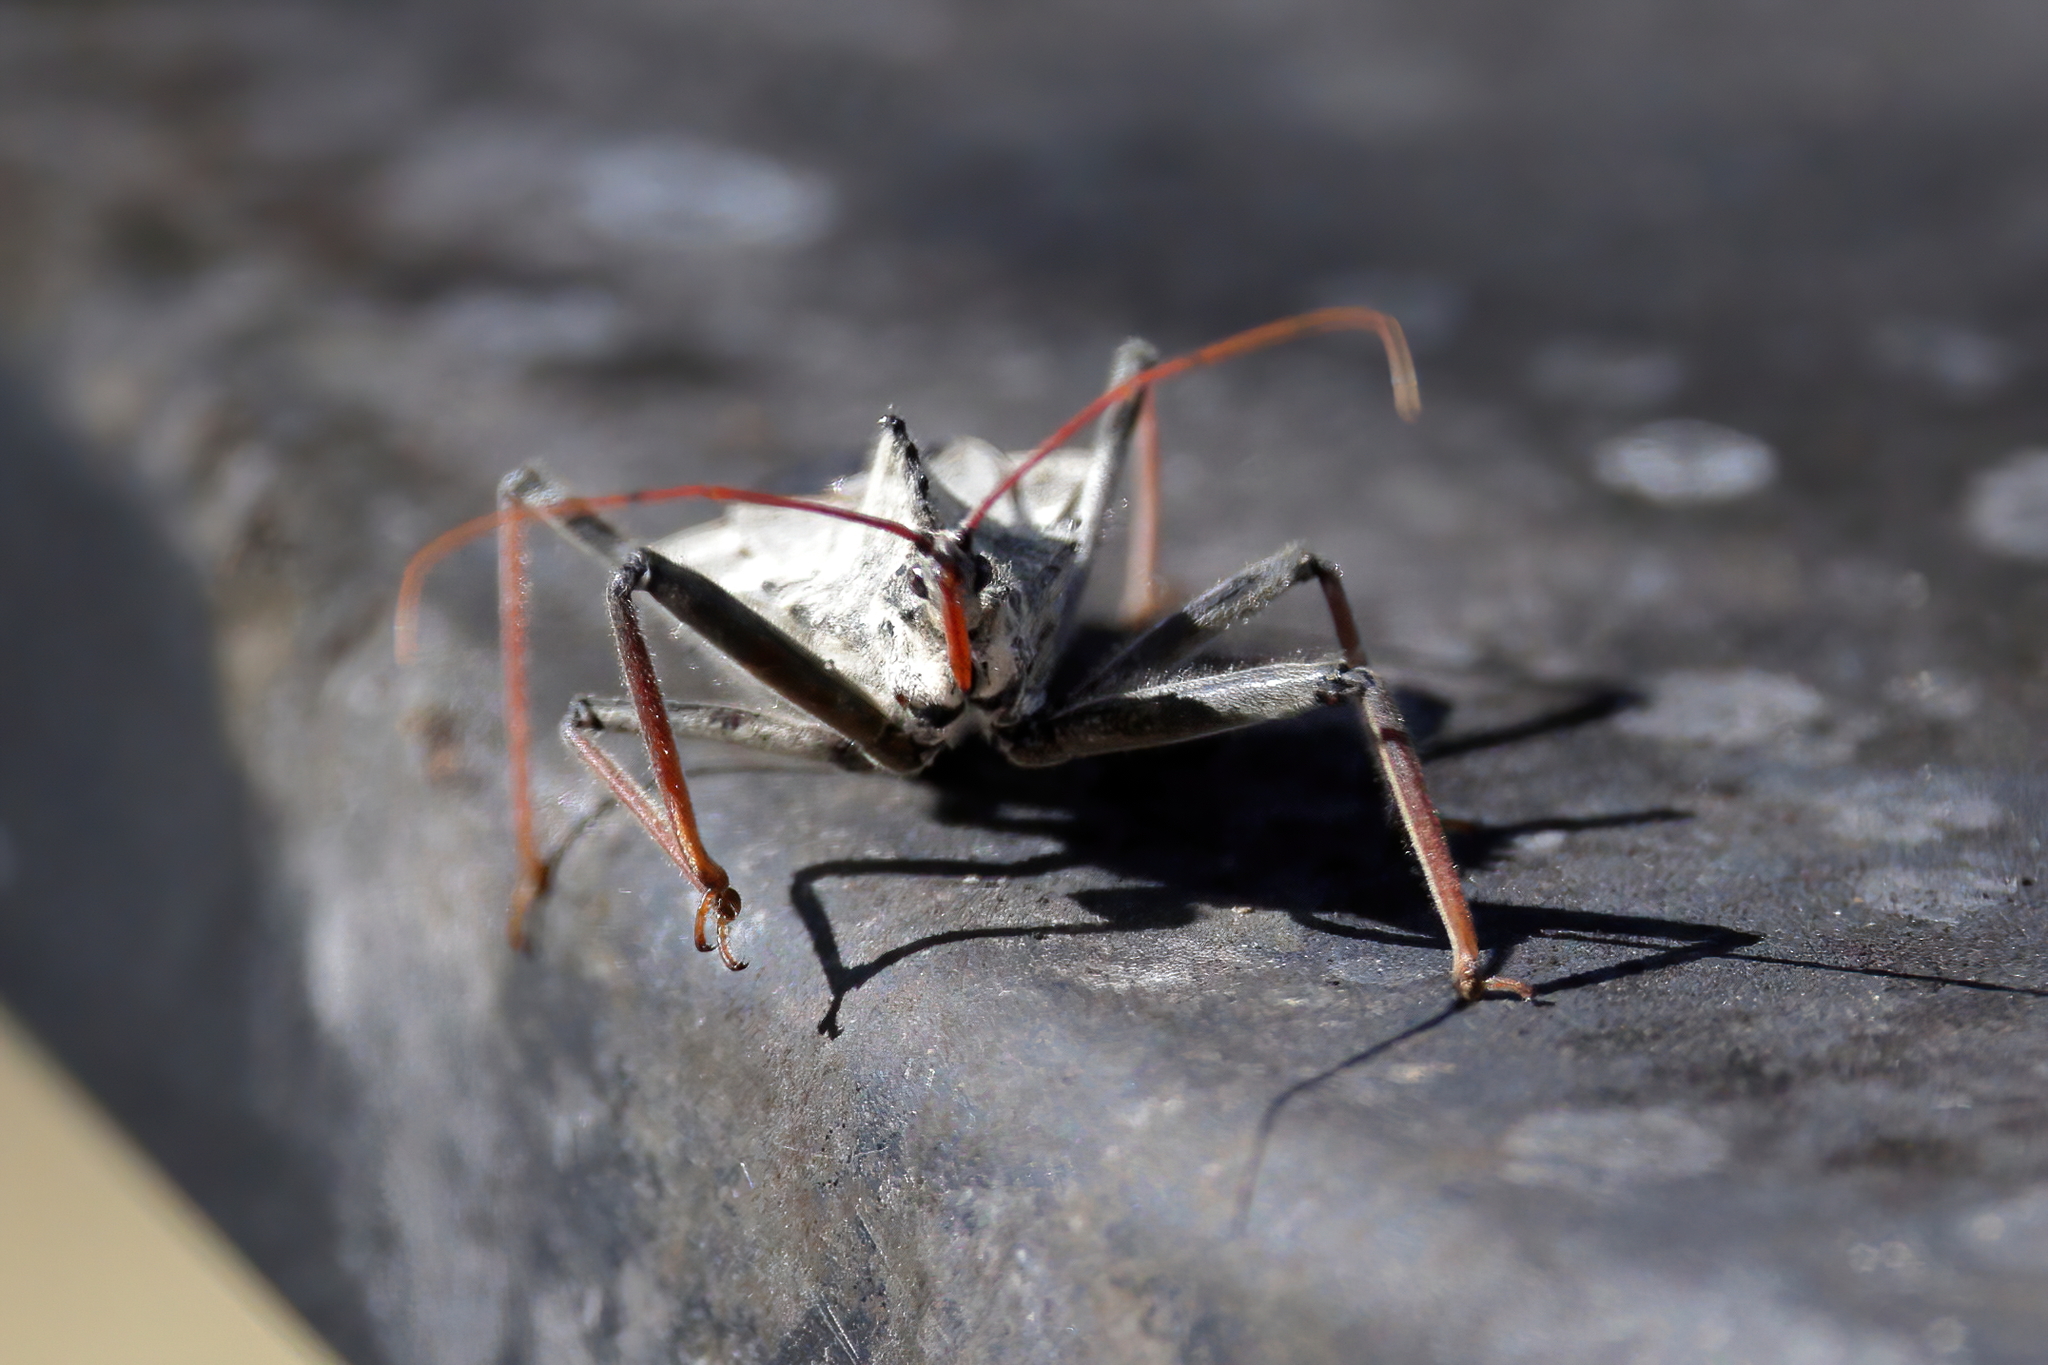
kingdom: Animalia
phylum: Arthropoda
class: Insecta
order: Hemiptera
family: Reduviidae
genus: Arilus
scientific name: Arilus cristatus
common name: North american wheel bug
